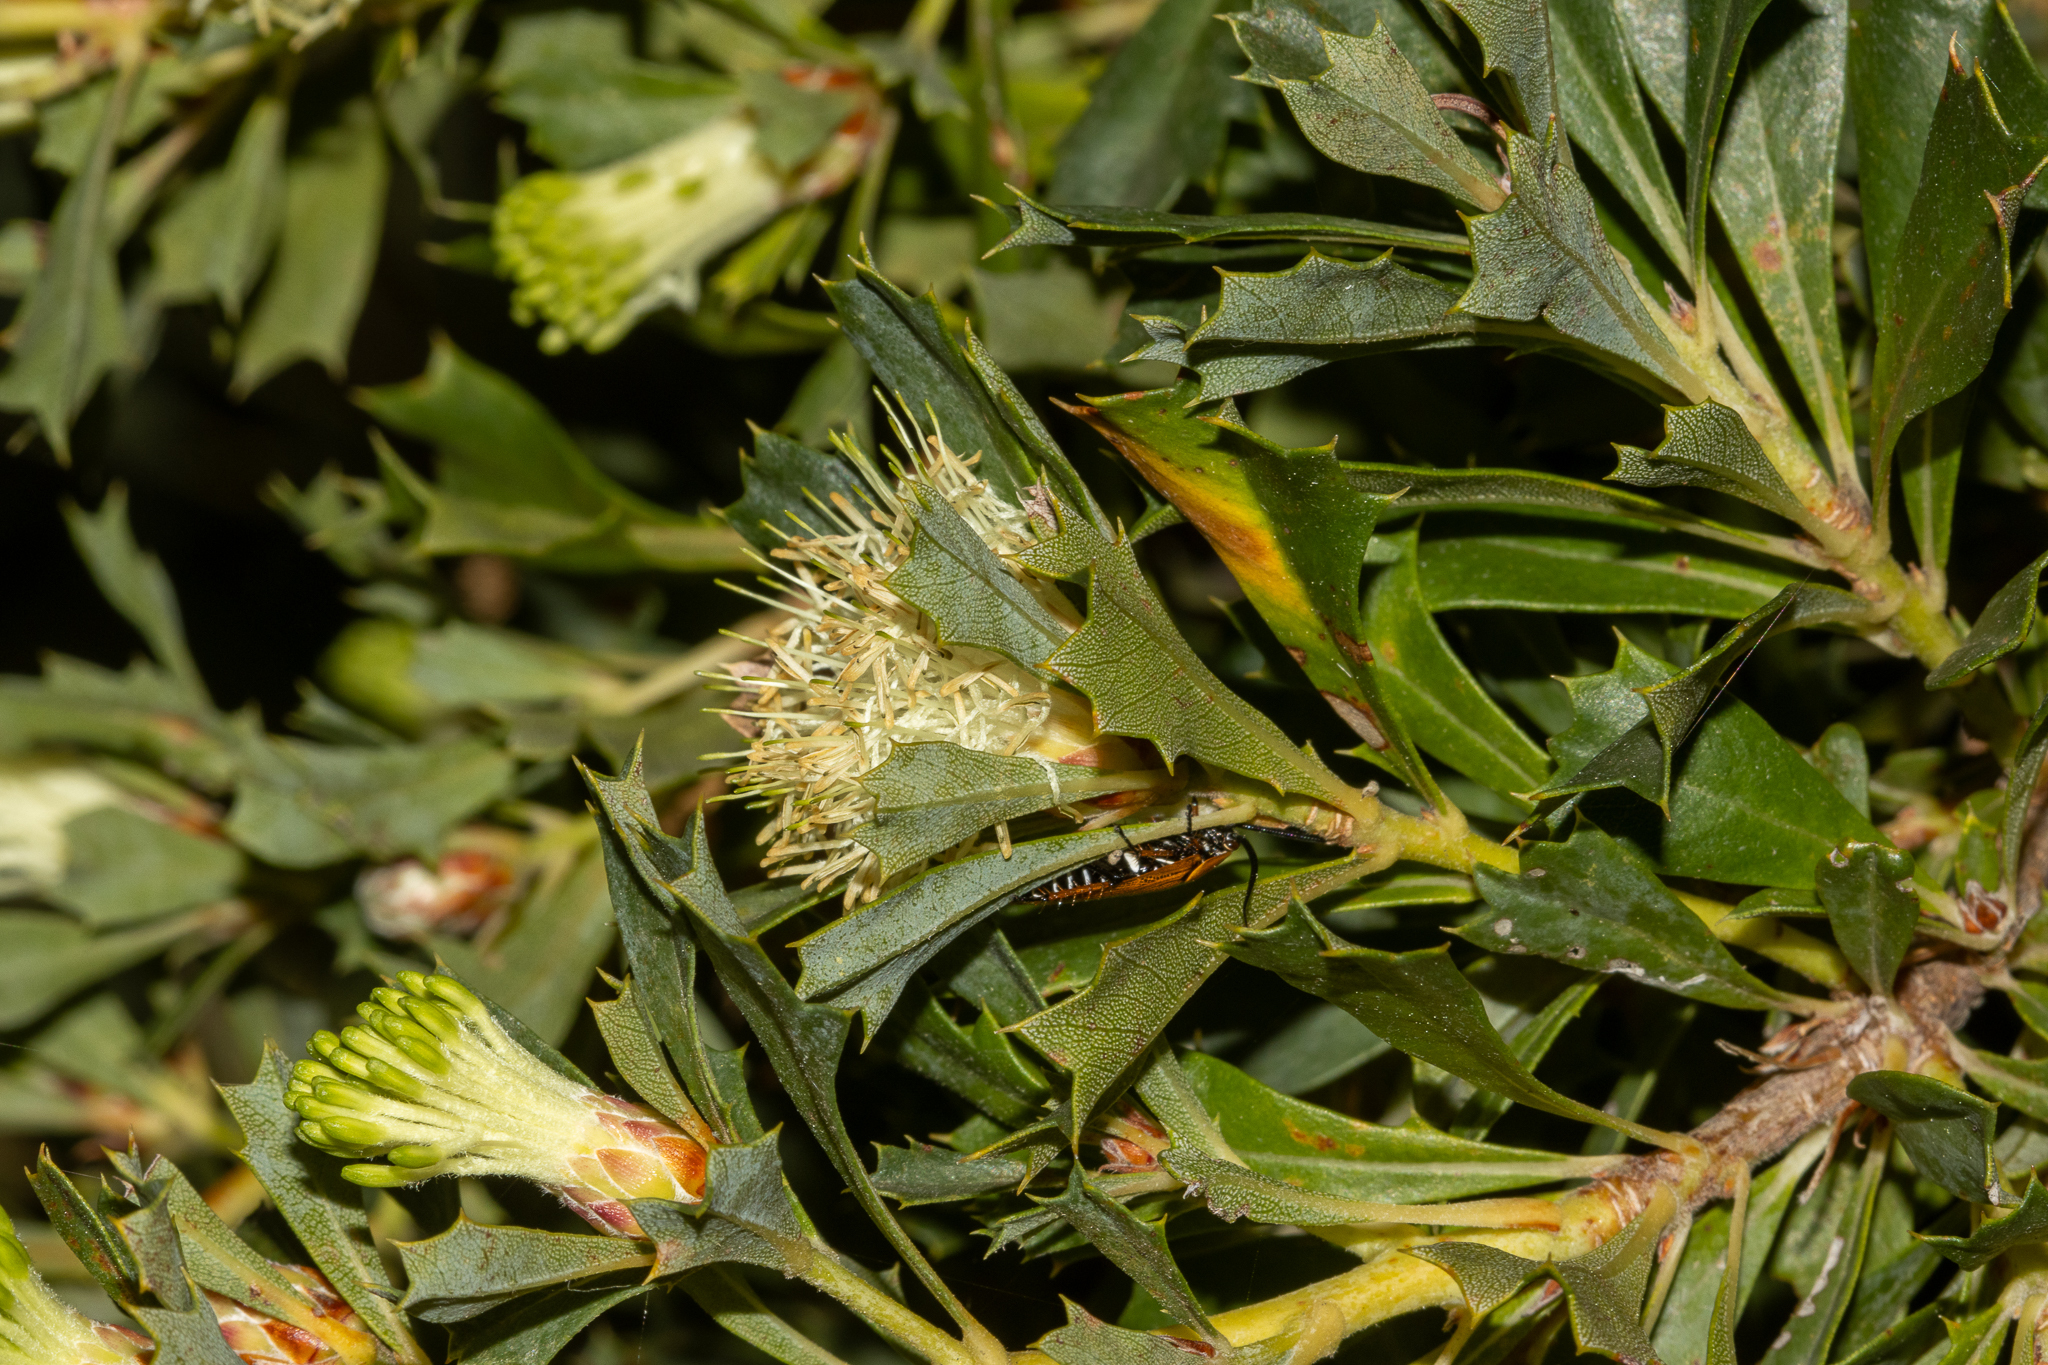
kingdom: Plantae
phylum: Tracheophyta
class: Magnoliopsida
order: Proteales
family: Proteaceae
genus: Banksia
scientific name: Banksia sessilis
